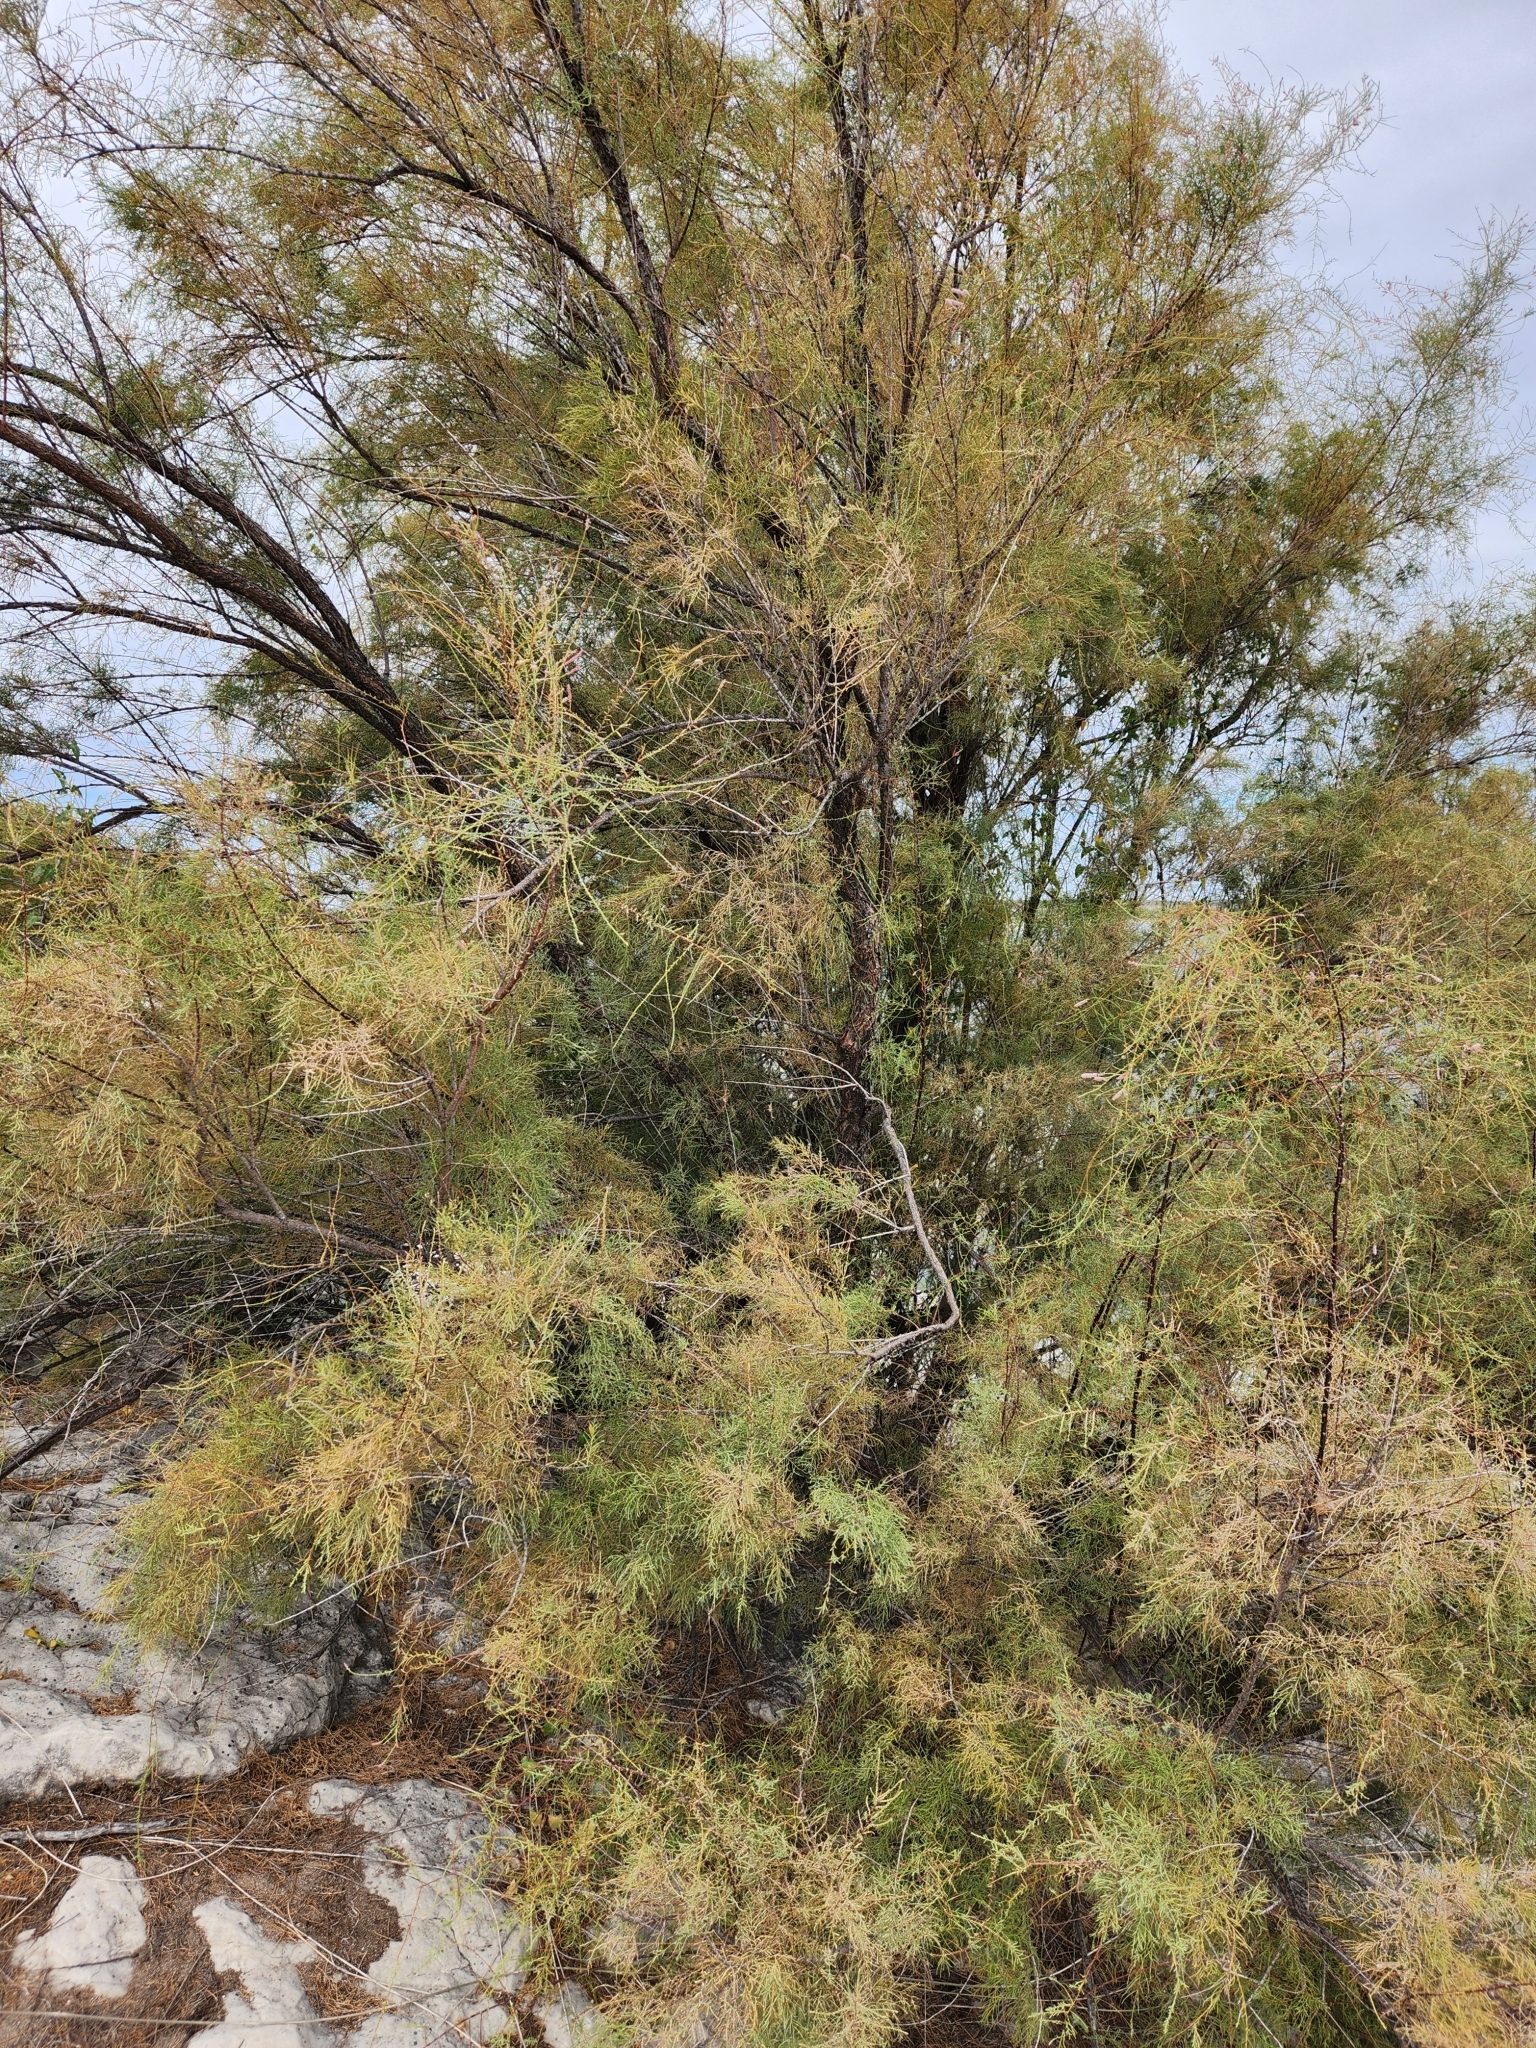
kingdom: Plantae
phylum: Tracheophyta
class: Magnoliopsida
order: Caryophyllales
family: Tamaricaceae
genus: Tamarix
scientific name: Tamarix ramosissima
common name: Pink tamarisk
